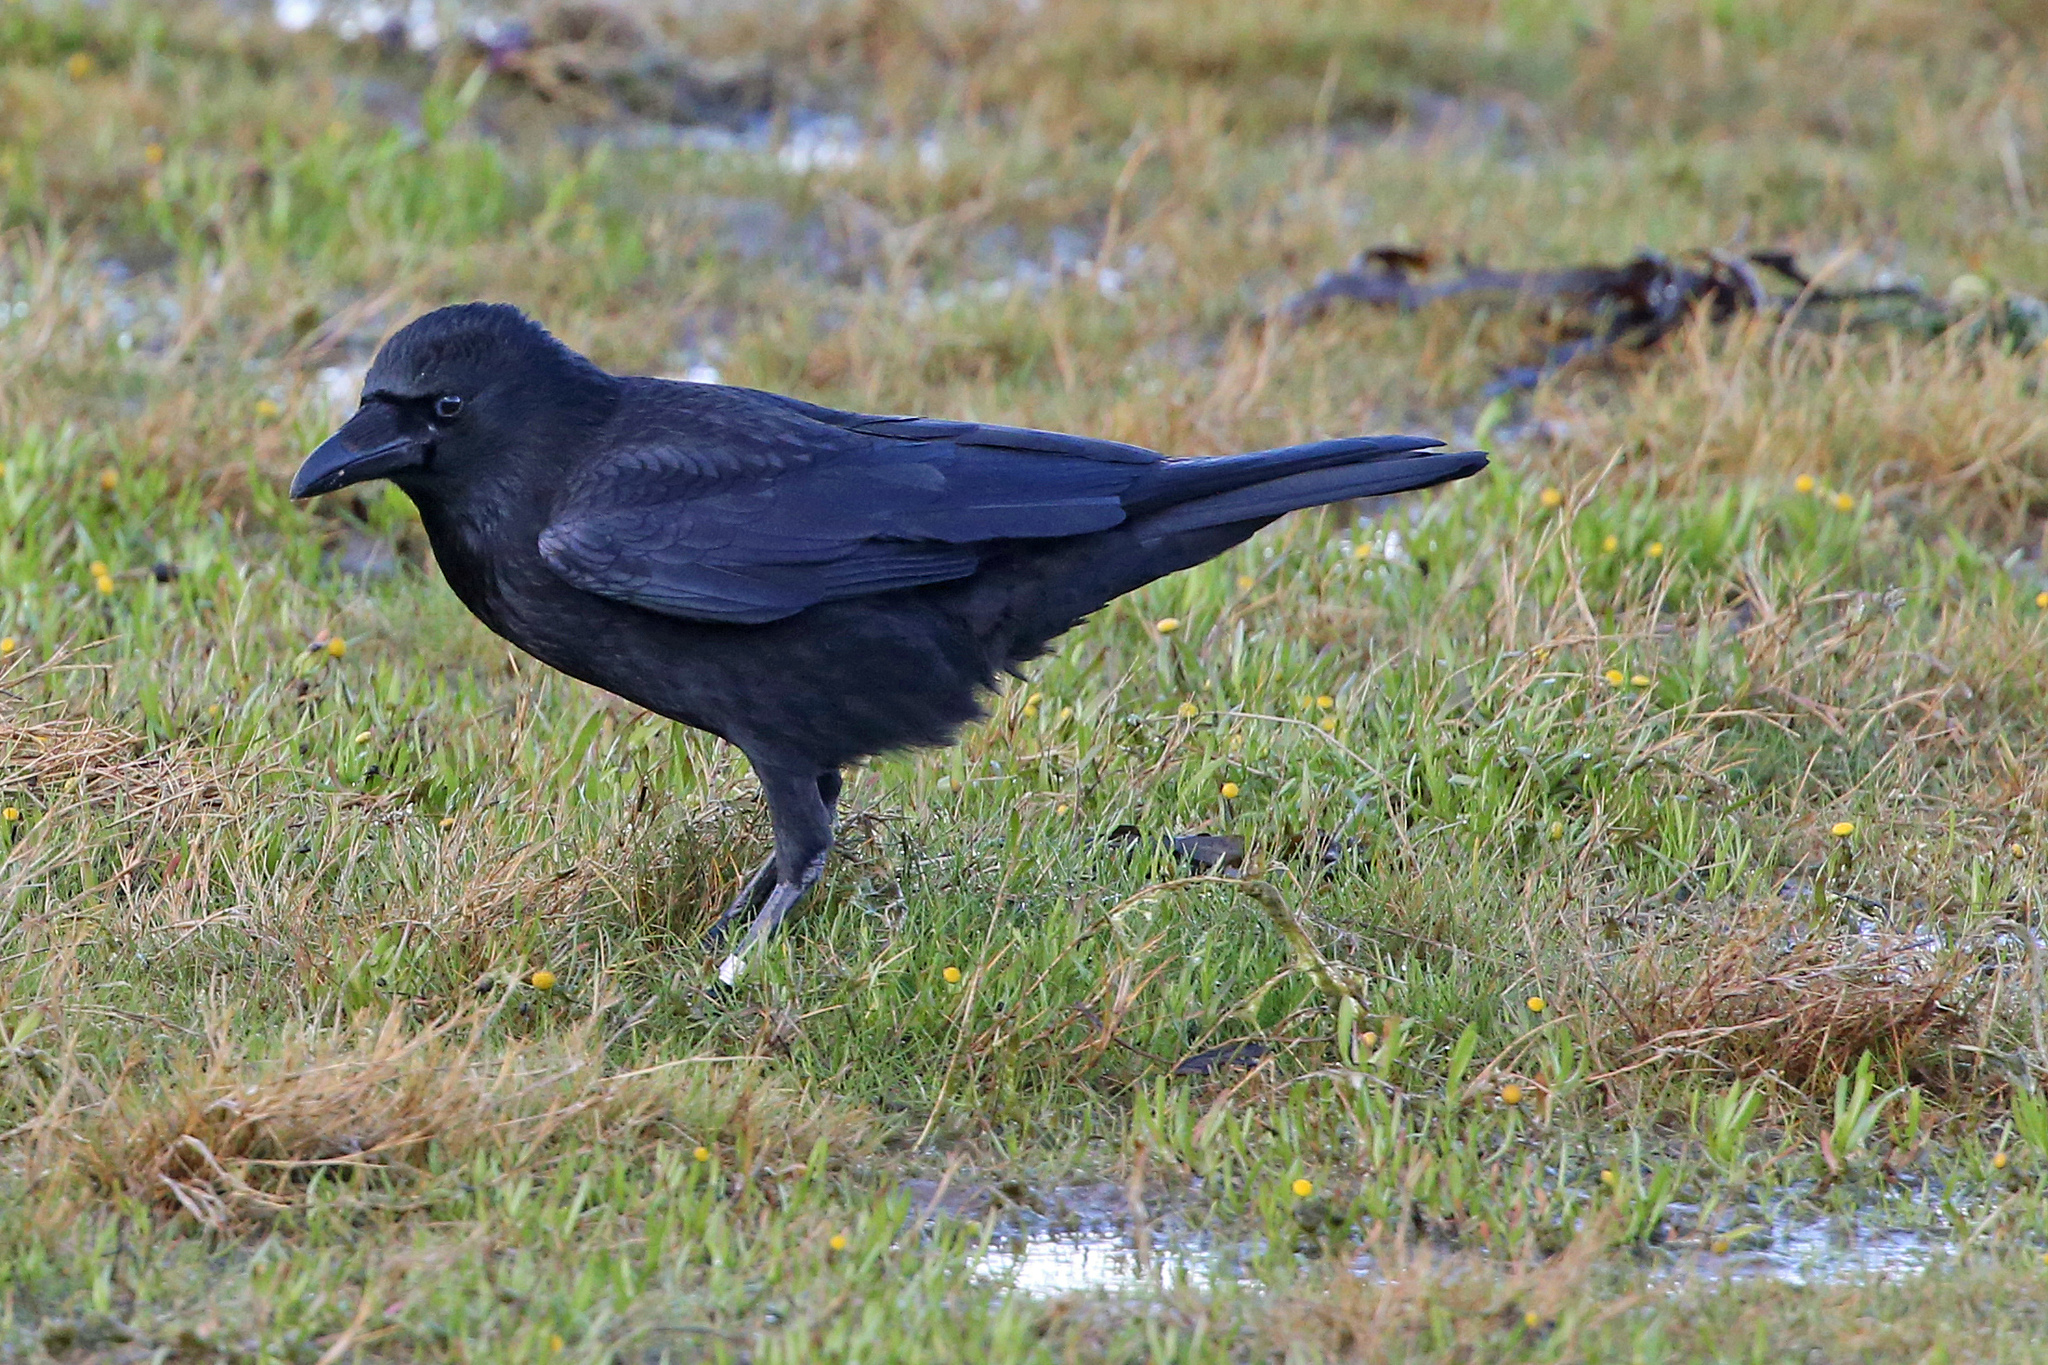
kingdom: Animalia
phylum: Chordata
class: Aves
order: Passeriformes
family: Corvidae
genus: Corvus
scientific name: Corvus corone
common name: Carrion crow
